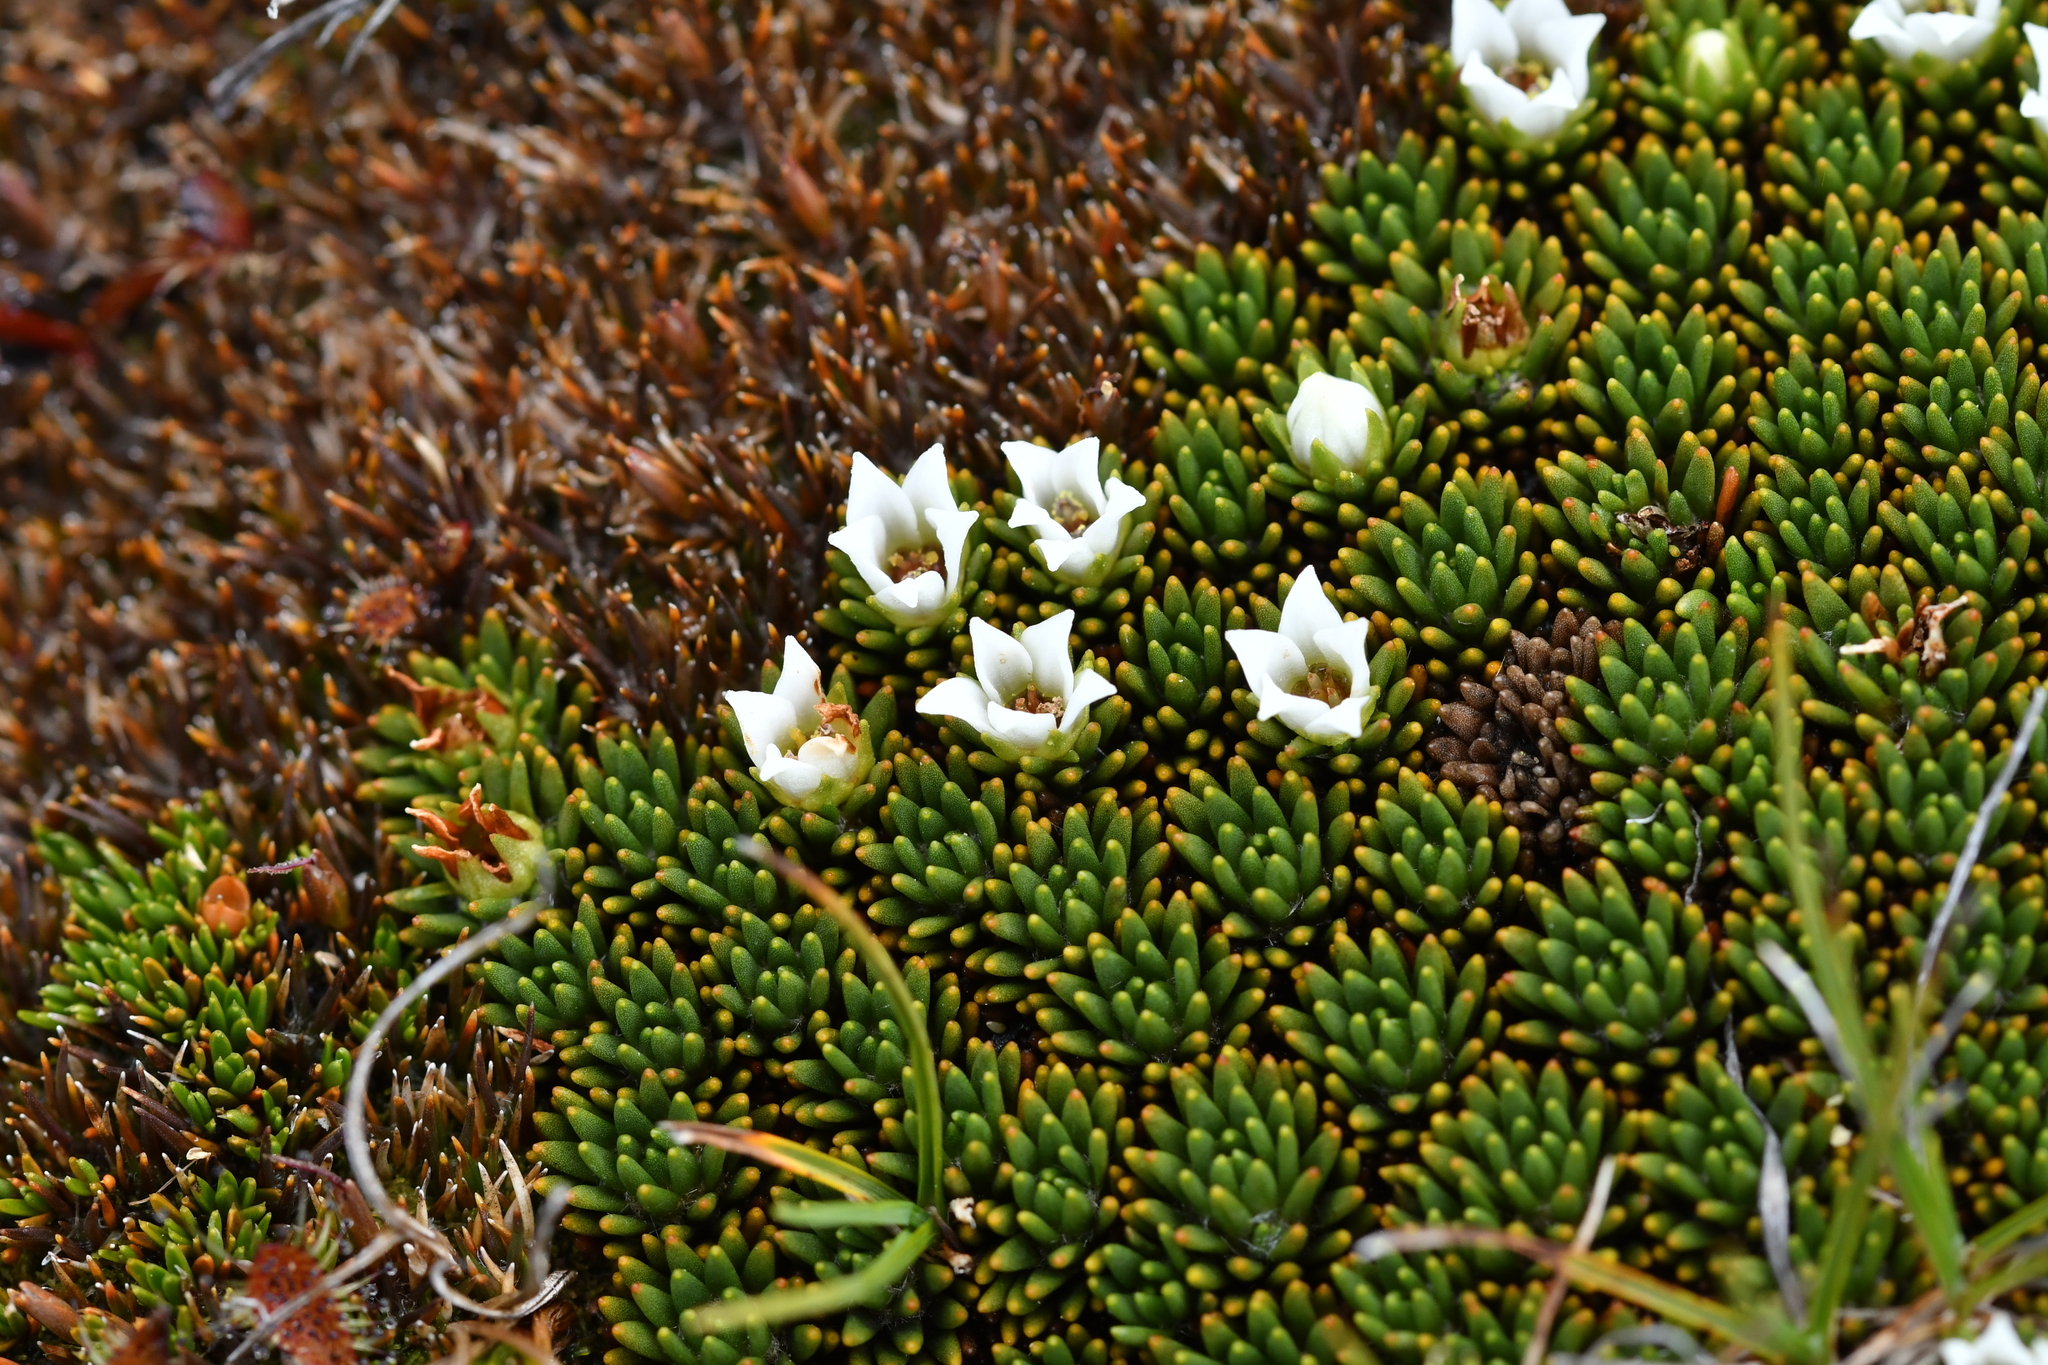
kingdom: Plantae
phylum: Tracheophyta
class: Magnoliopsida
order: Asterales
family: Stylidiaceae
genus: Donatia
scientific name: Donatia novae-zelandiae
